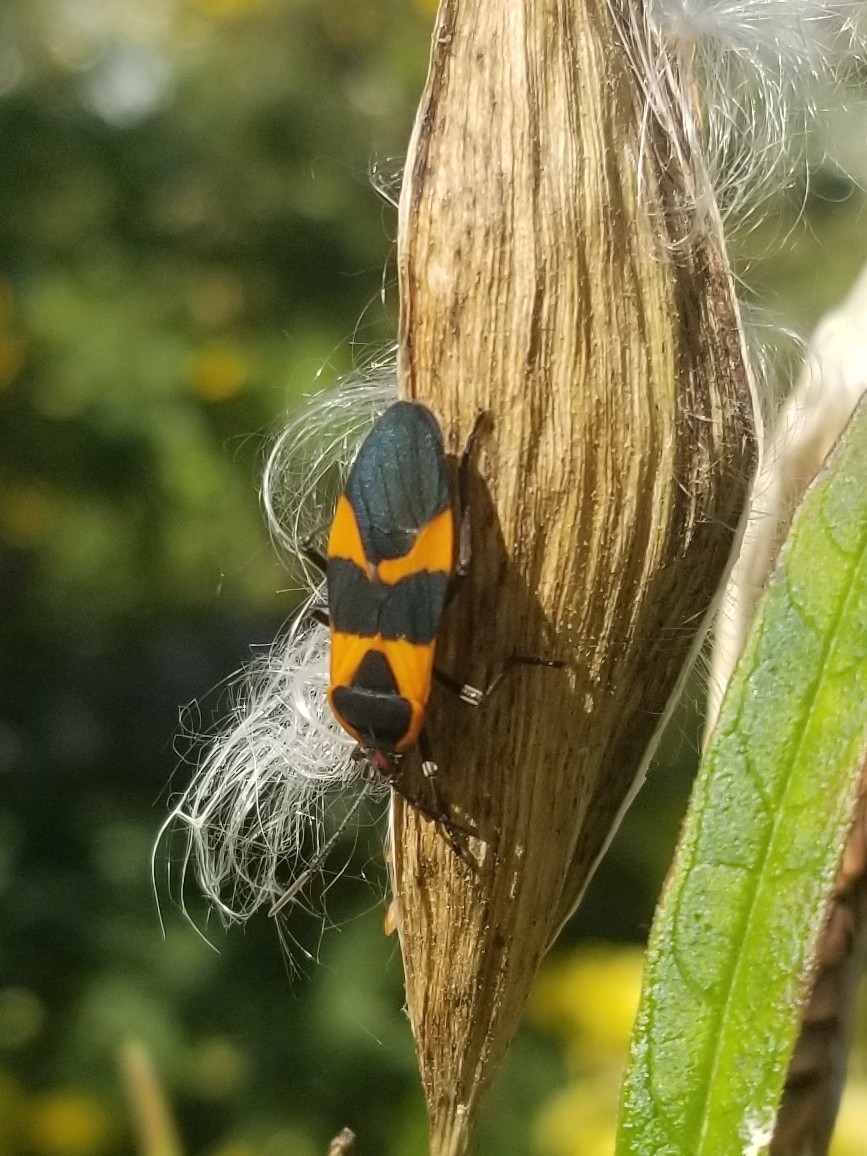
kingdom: Animalia
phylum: Arthropoda
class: Insecta
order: Hemiptera
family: Lygaeidae
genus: Oncopeltus
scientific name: Oncopeltus fasciatus
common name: Large milkweed bug
